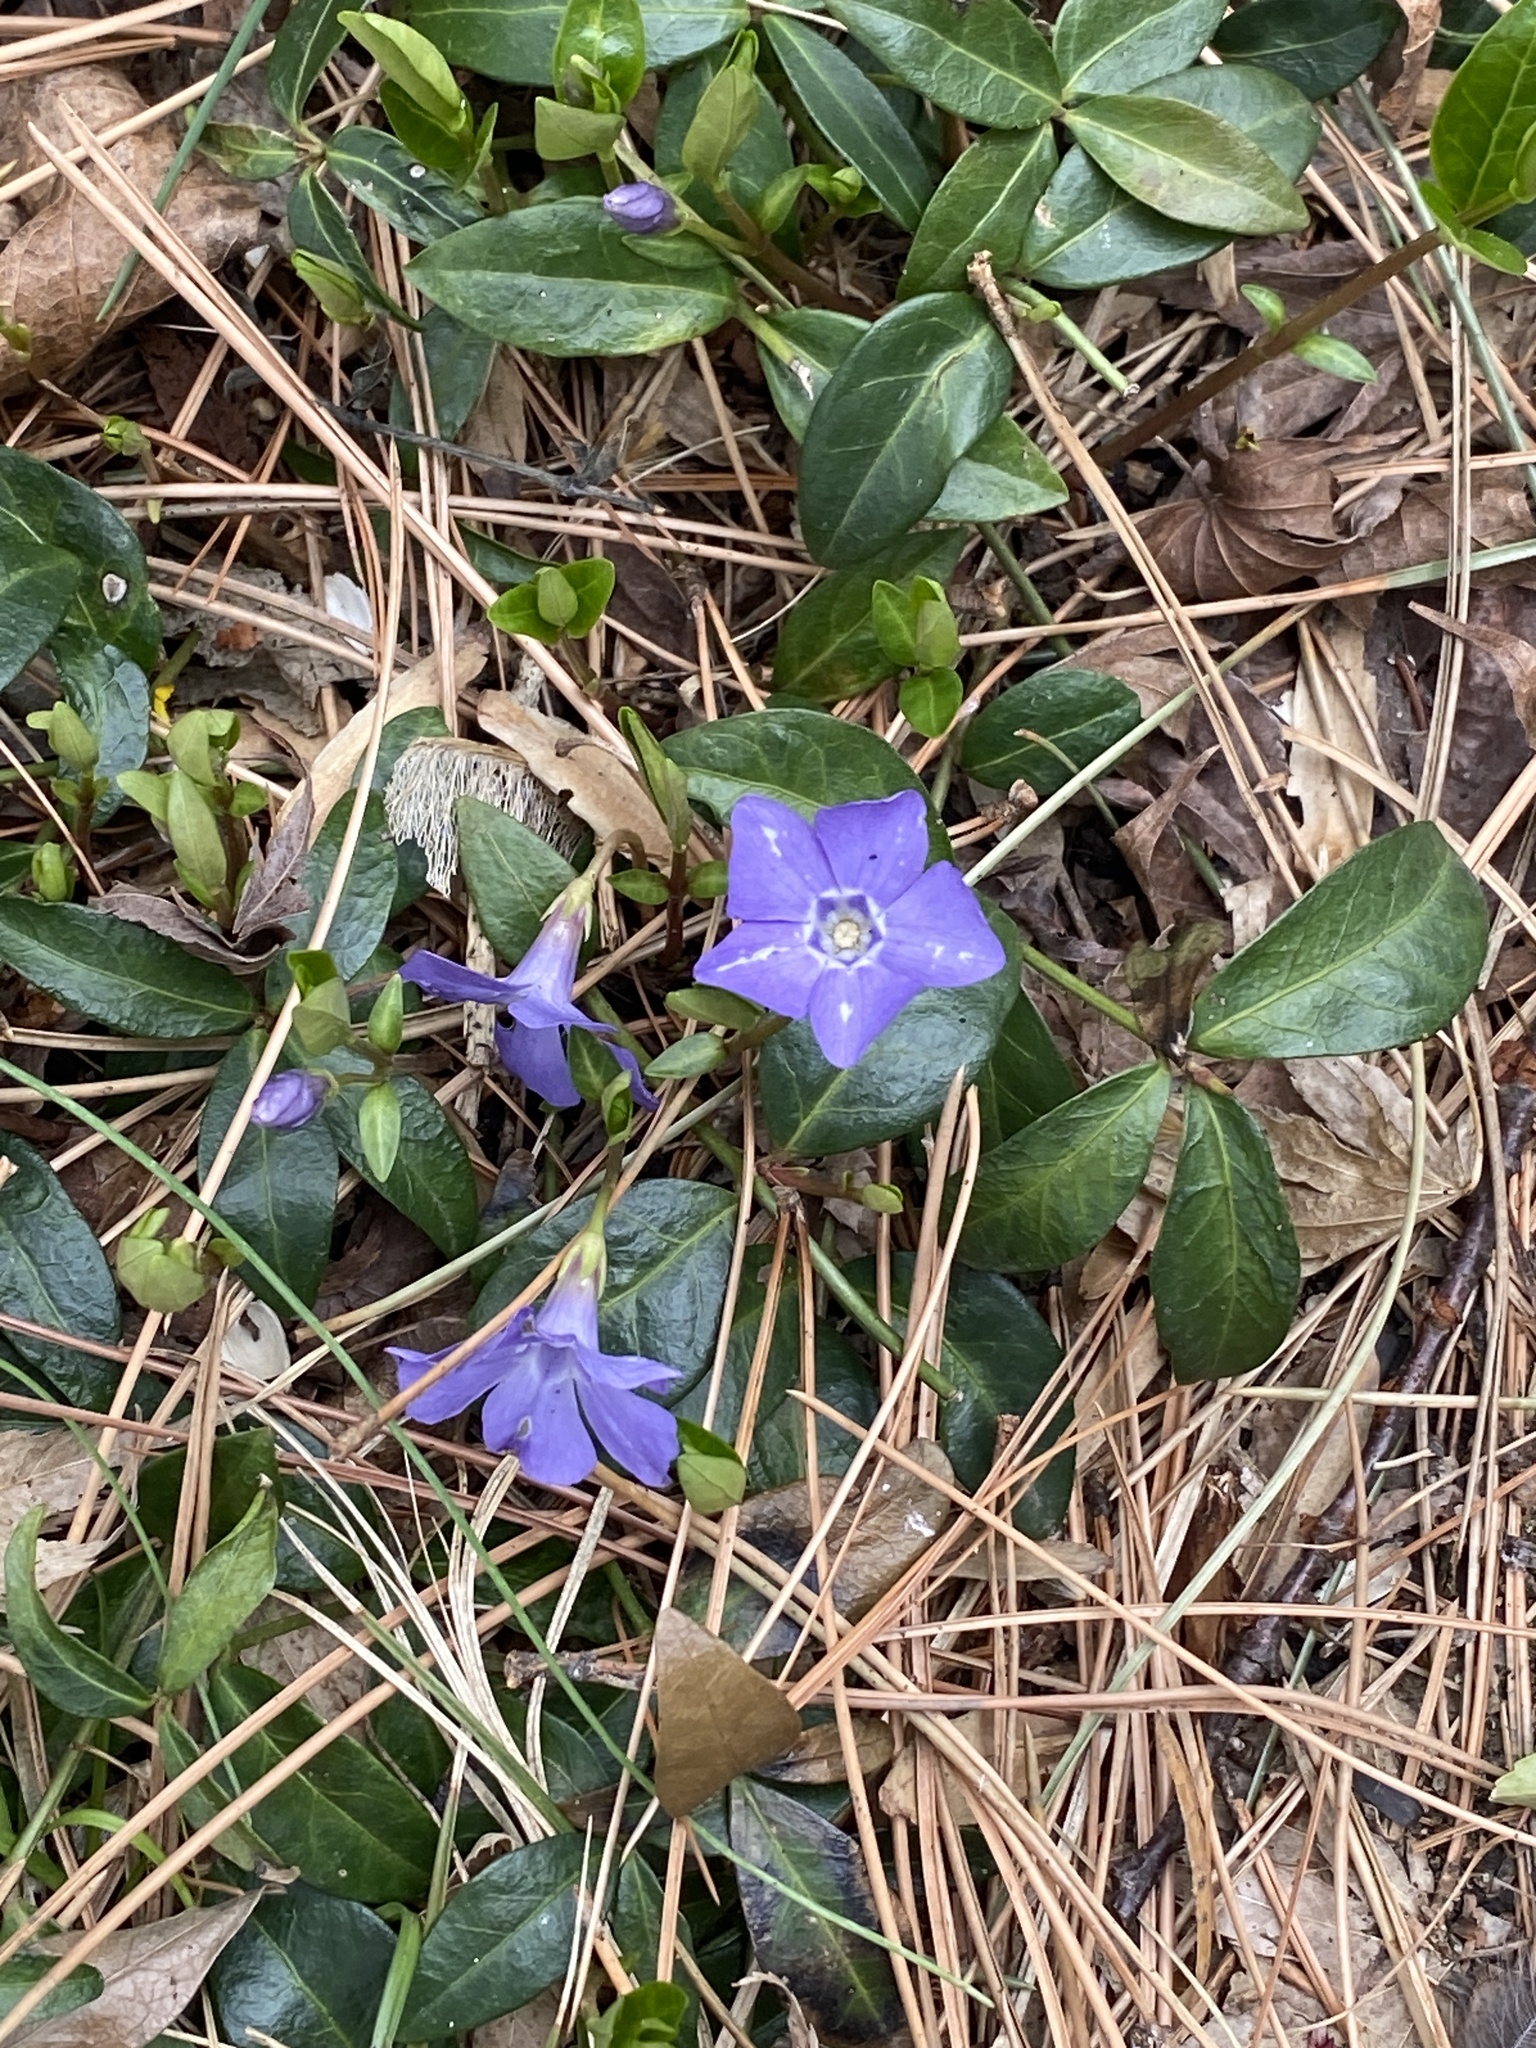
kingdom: Plantae
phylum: Tracheophyta
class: Magnoliopsida
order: Gentianales
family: Apocynaceae
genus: Vinca
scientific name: Vinca minor
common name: Lesser periwinkle
